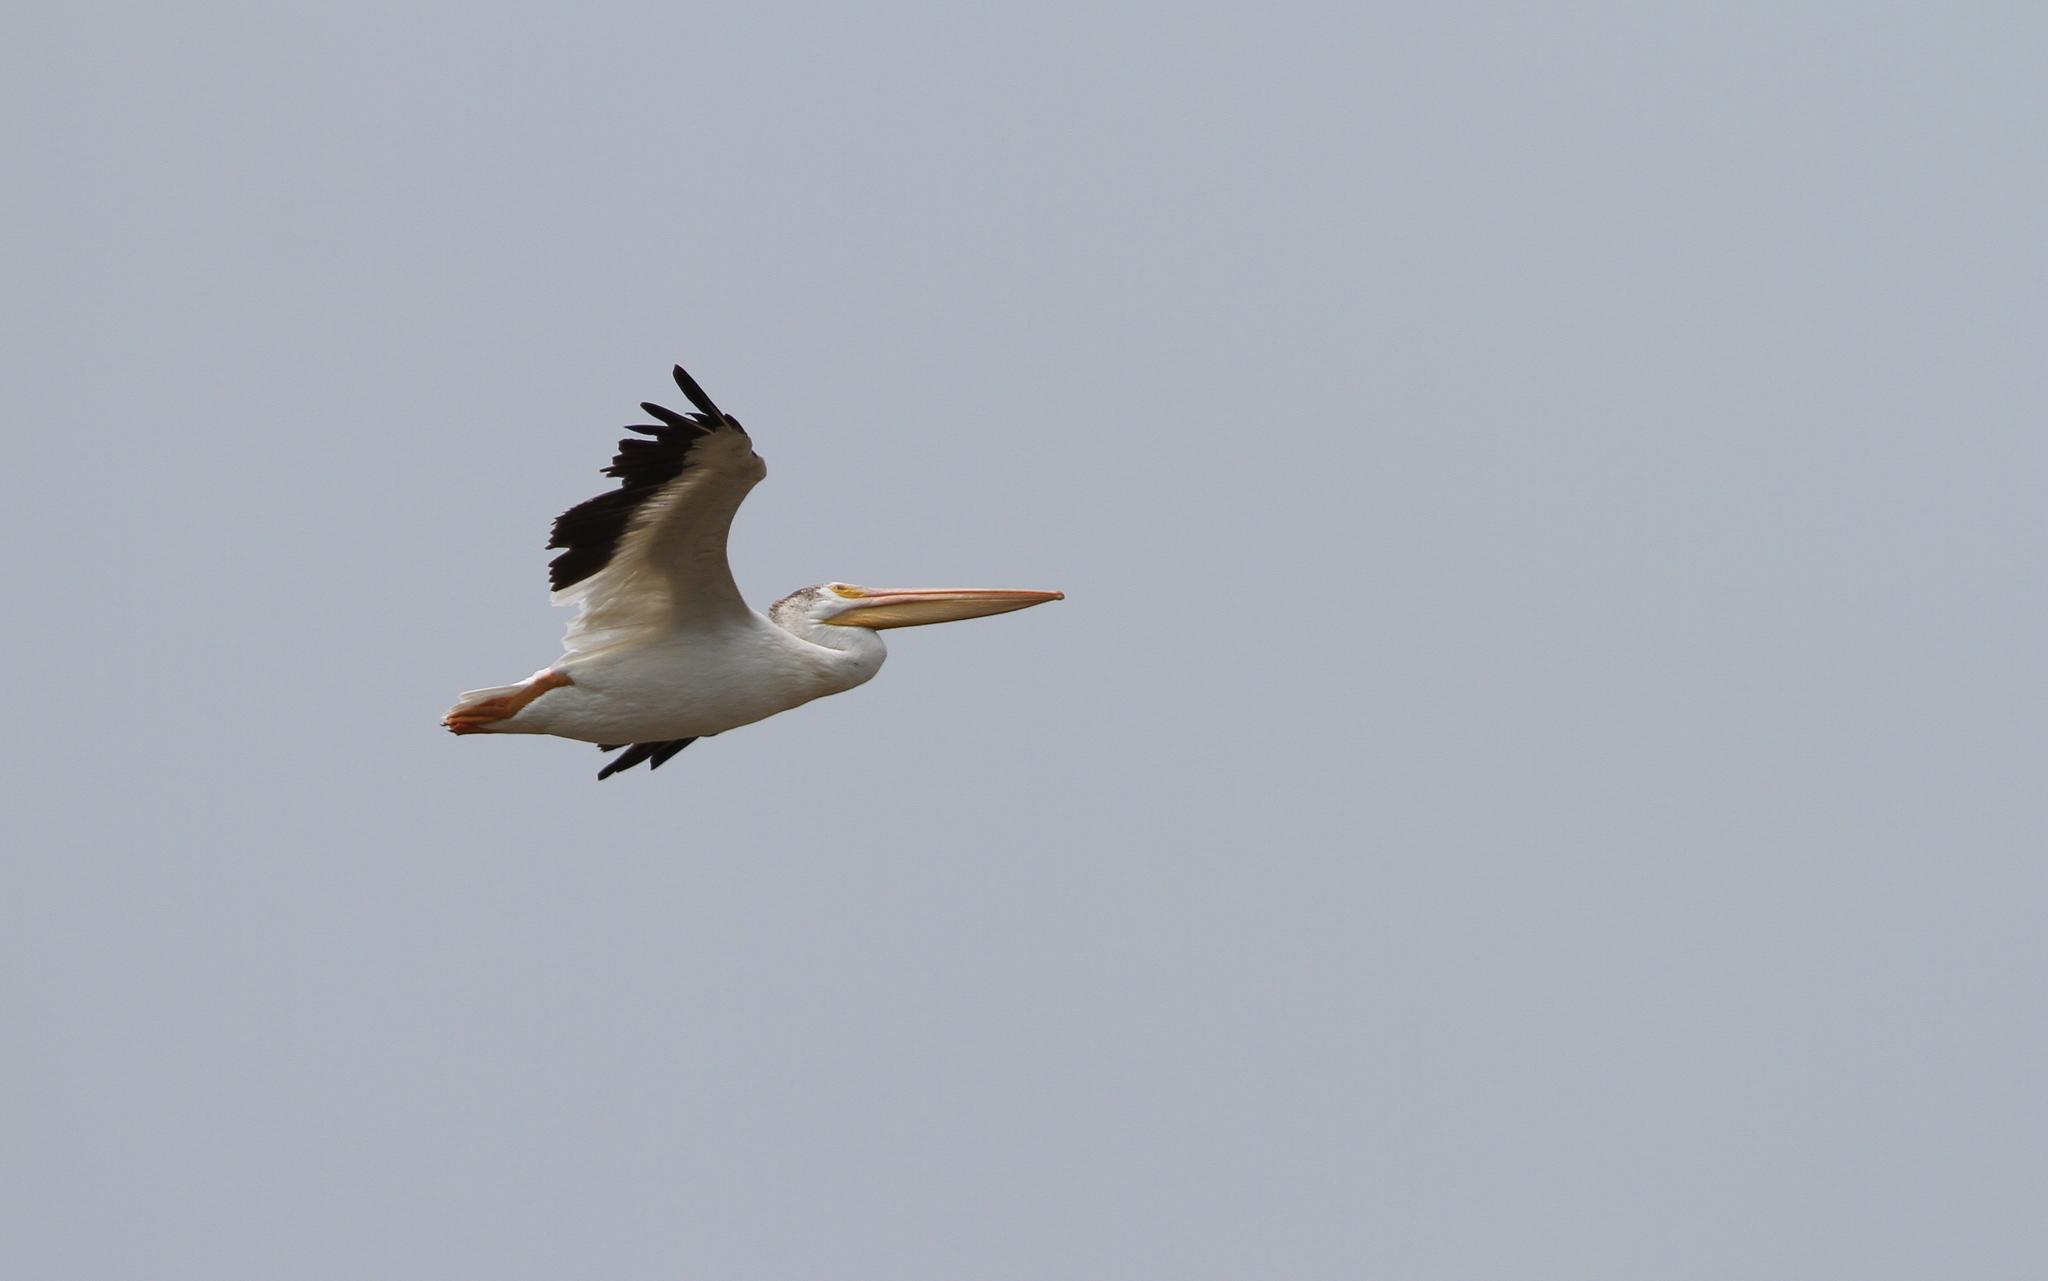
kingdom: Animalia
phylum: Chordata
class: Aves
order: Pelecaniformes
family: Pelecanidae
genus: Pelecanus
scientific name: Pelecanus erythrorhynchos
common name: American white pelican
